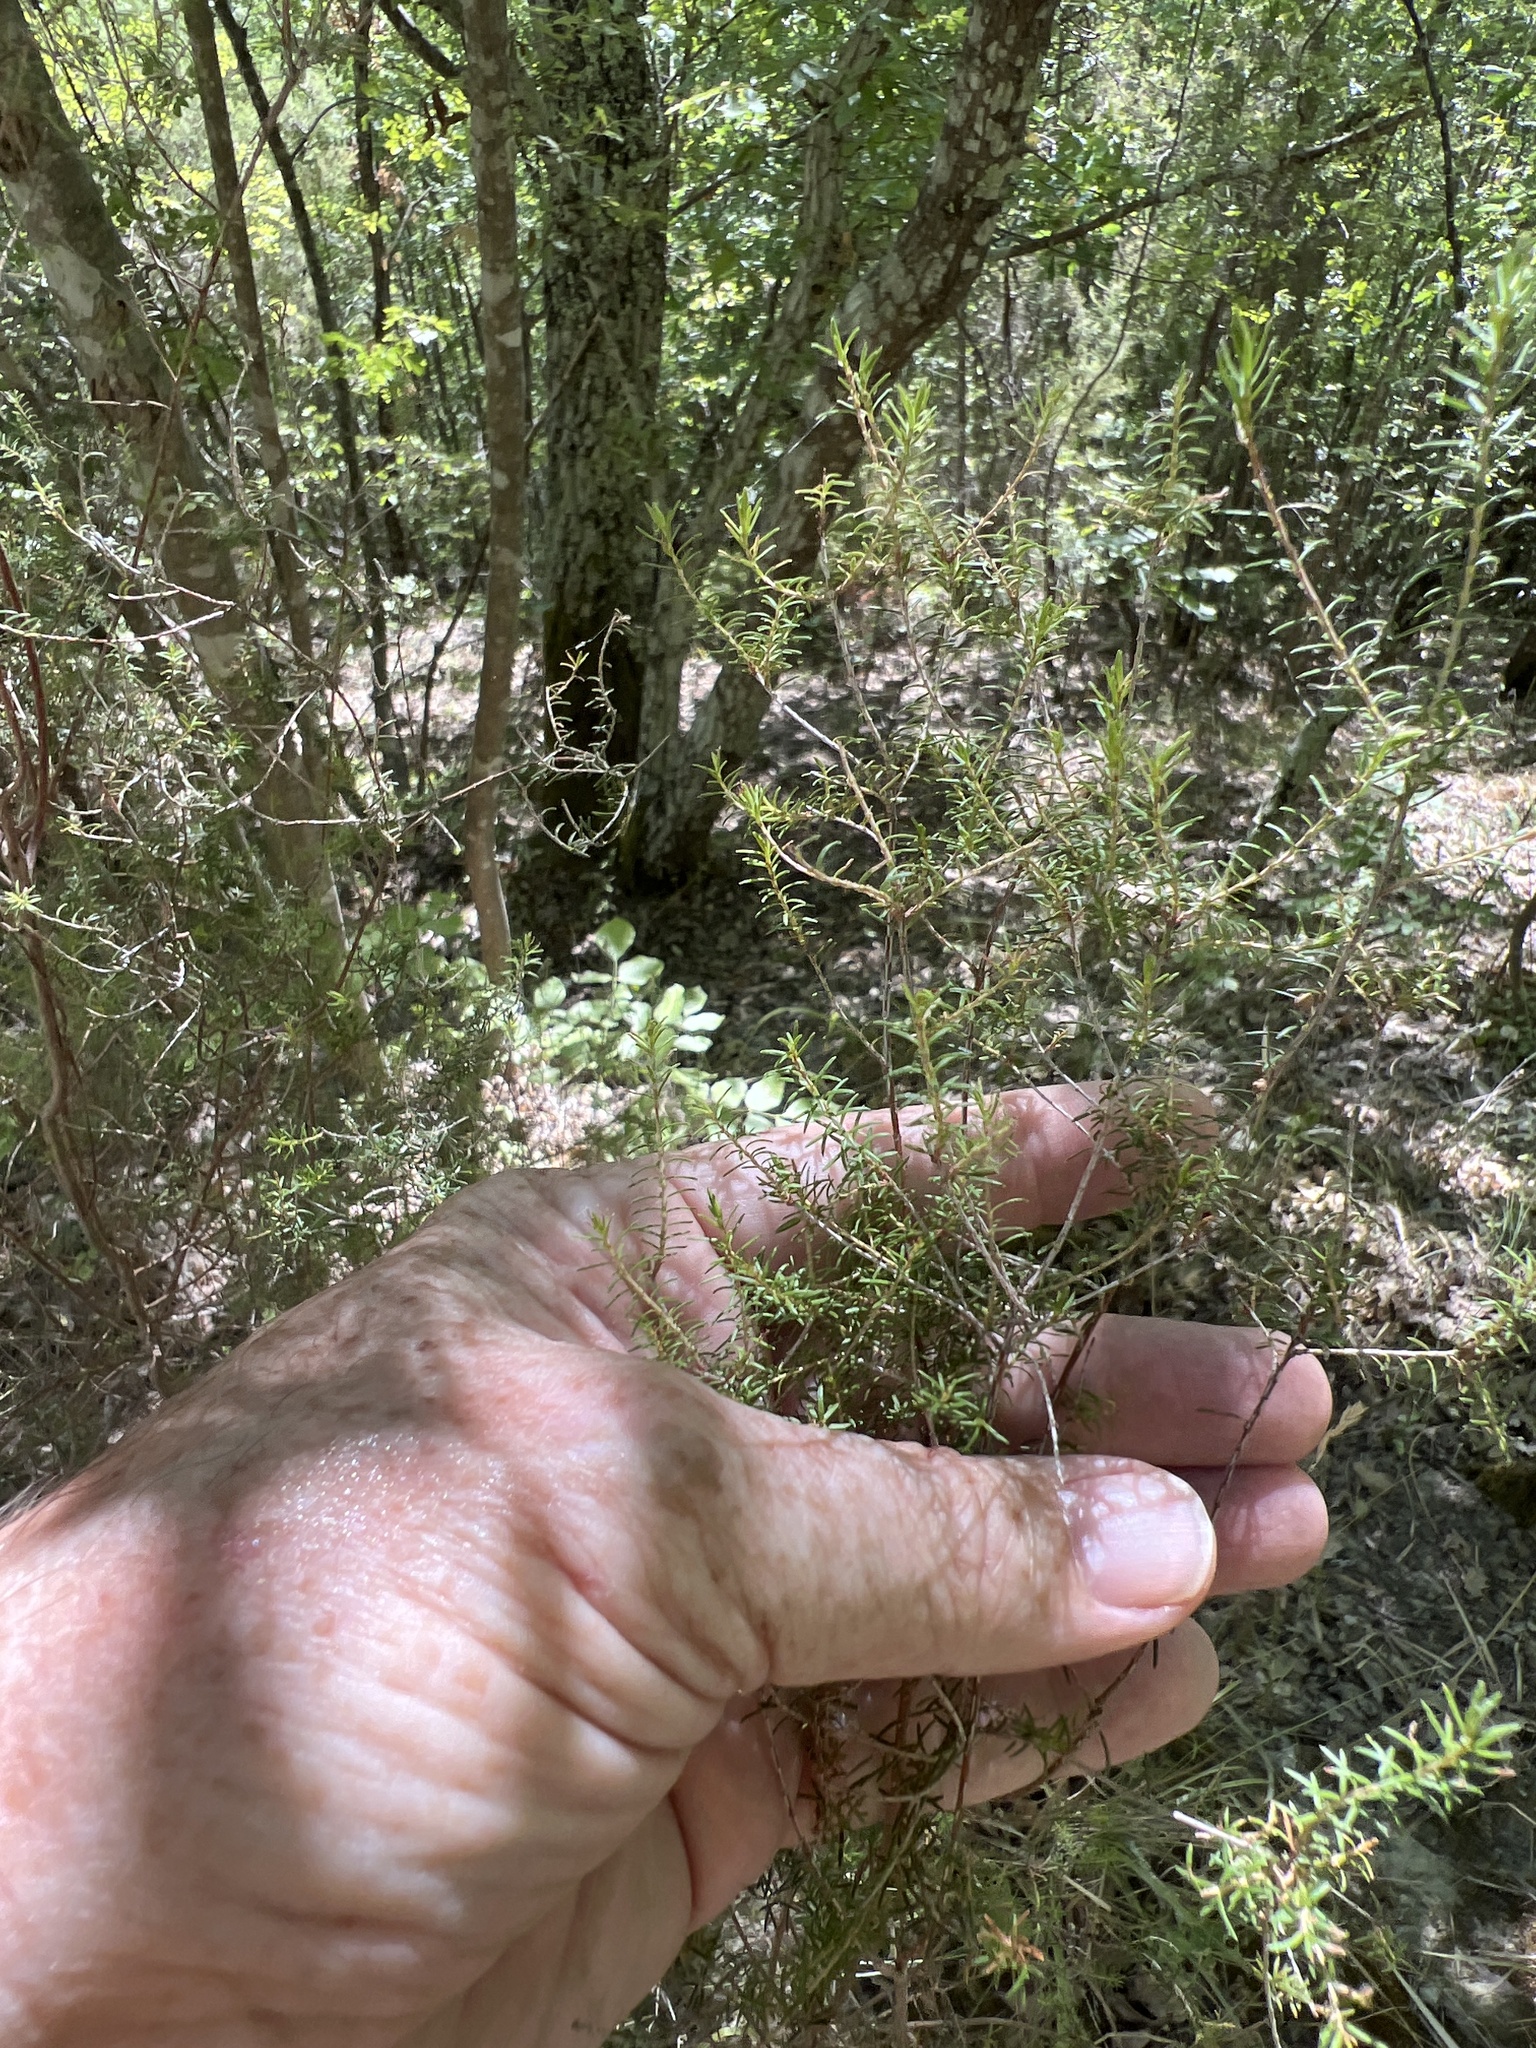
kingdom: Plantae
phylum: Tracheophyta
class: Magnoliopsida
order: Ericales
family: Ericaceae
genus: Erica
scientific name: Erica scoparia
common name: Green heather
